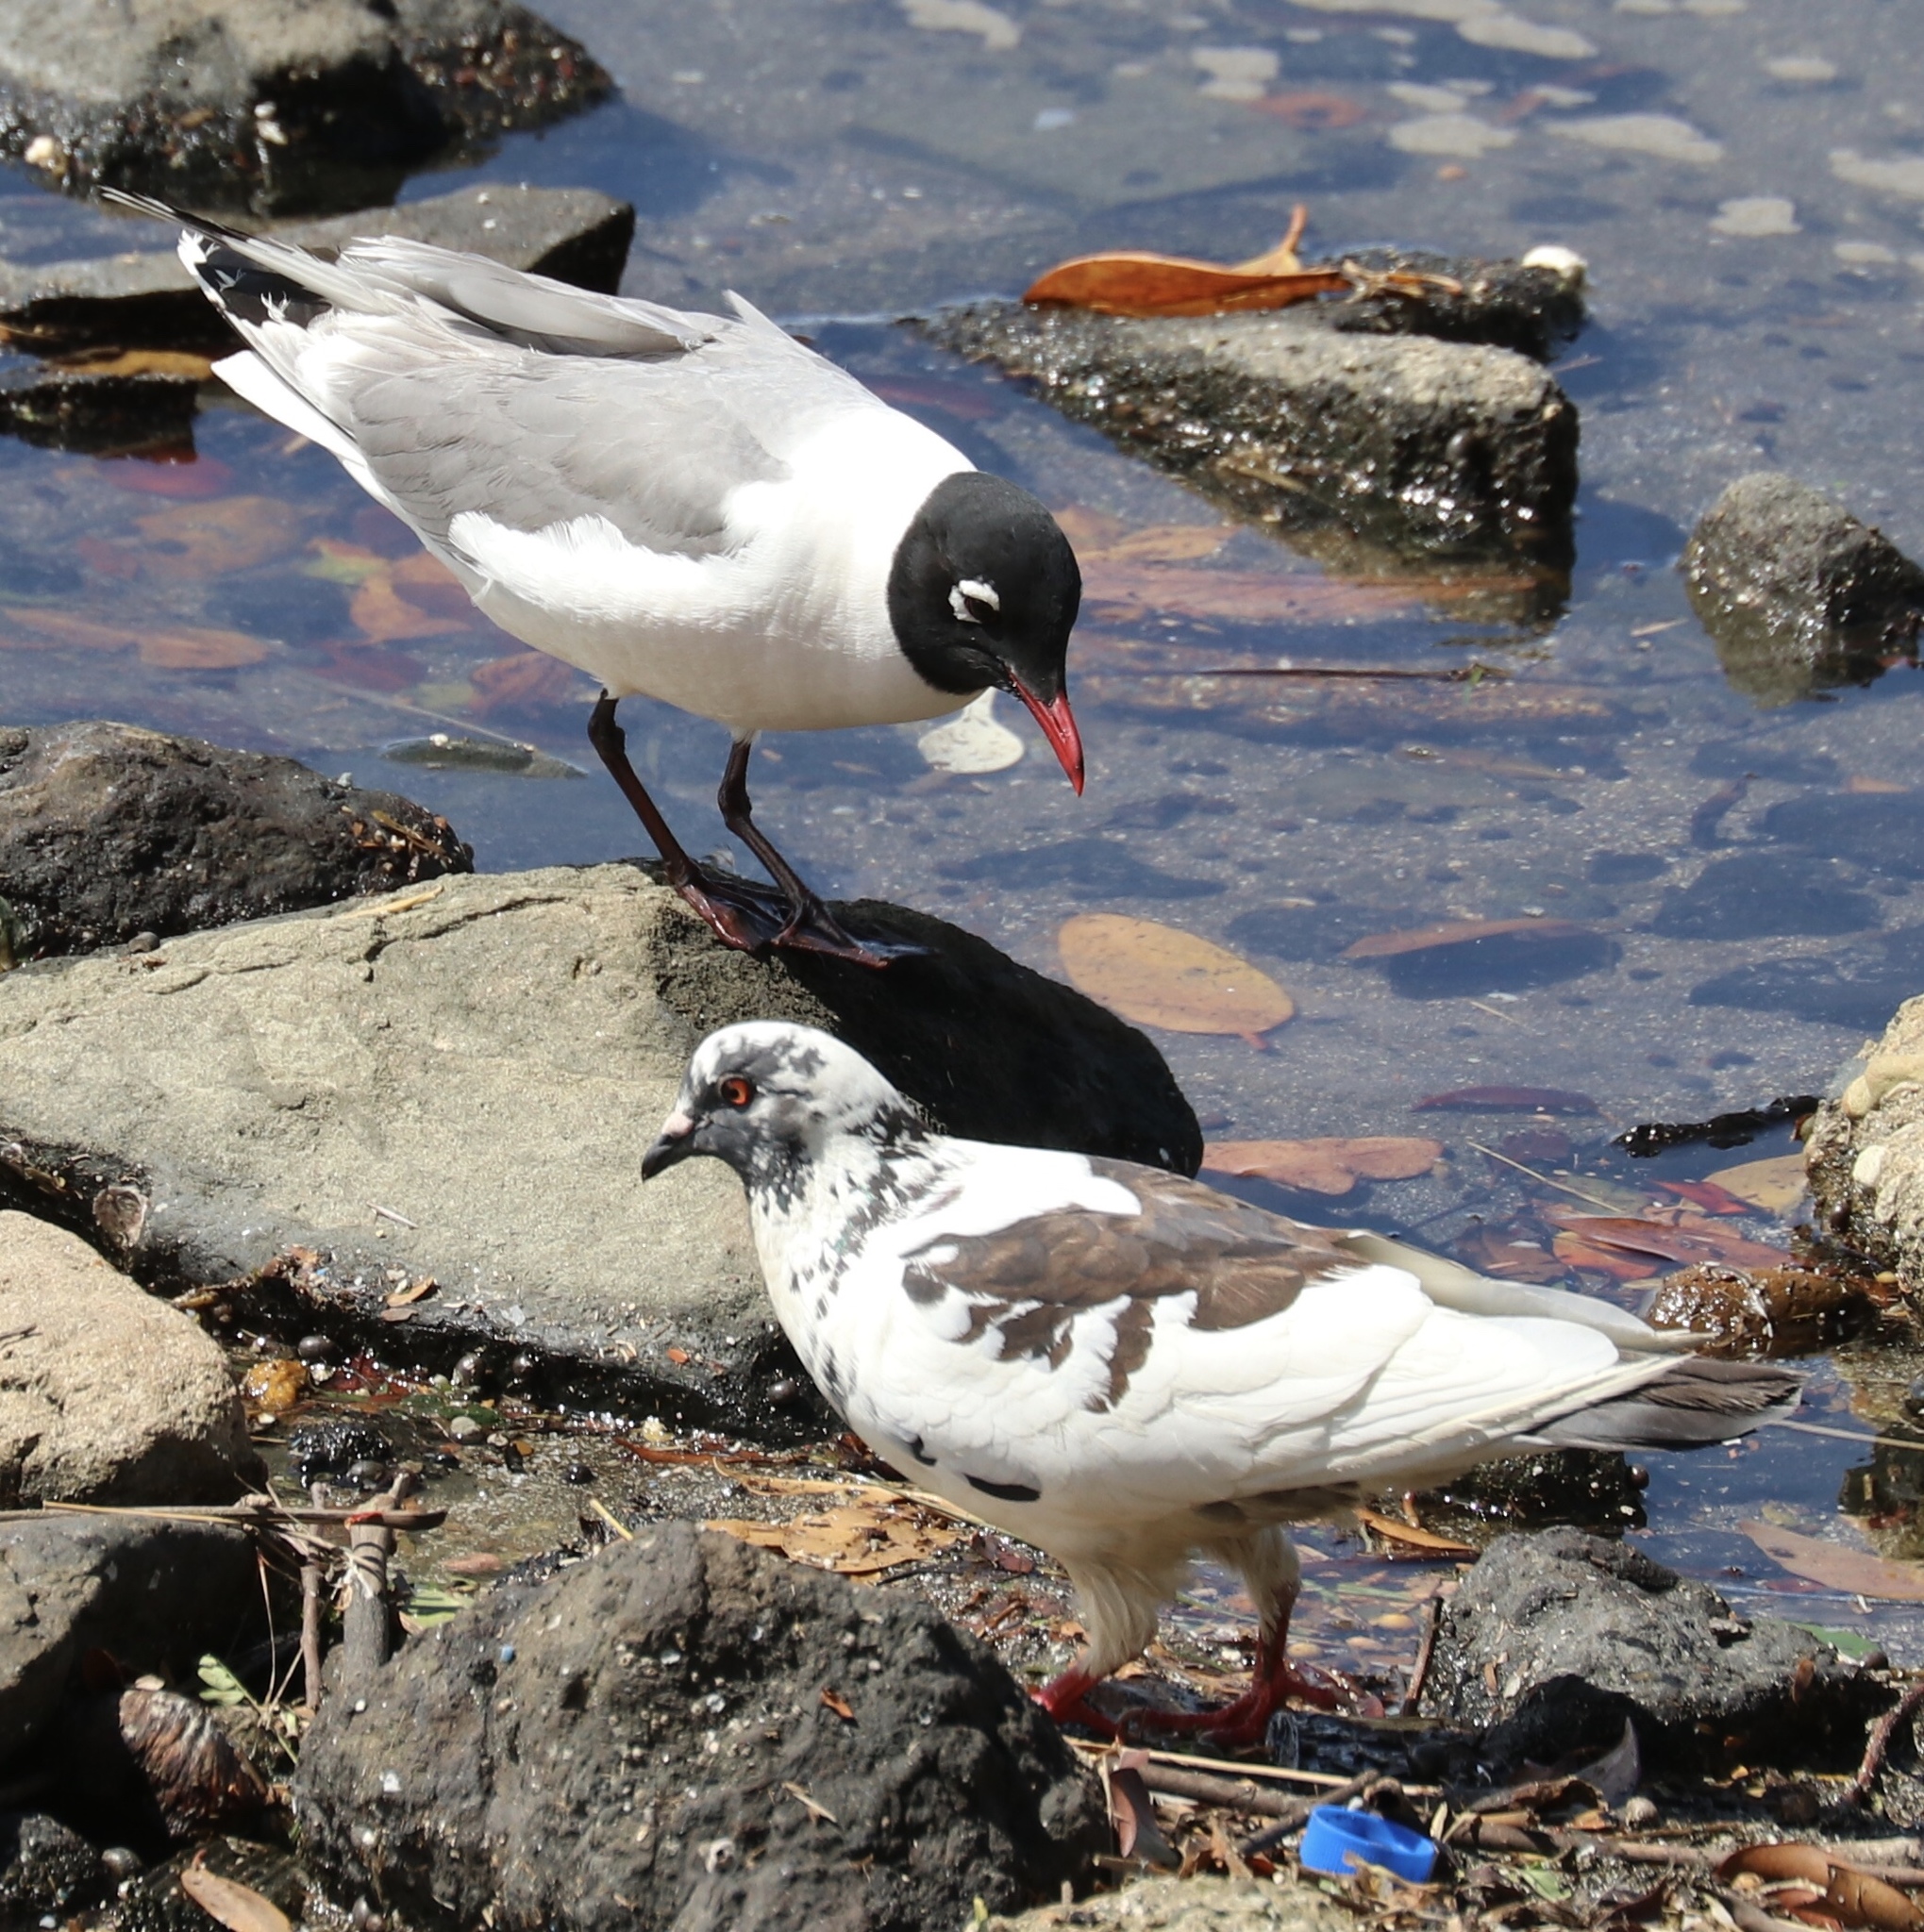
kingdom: Animalia
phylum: Chordata
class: Aves
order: Columbiformes
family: Columbidae
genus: Columba
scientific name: Columba livia
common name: Rock pigeon
